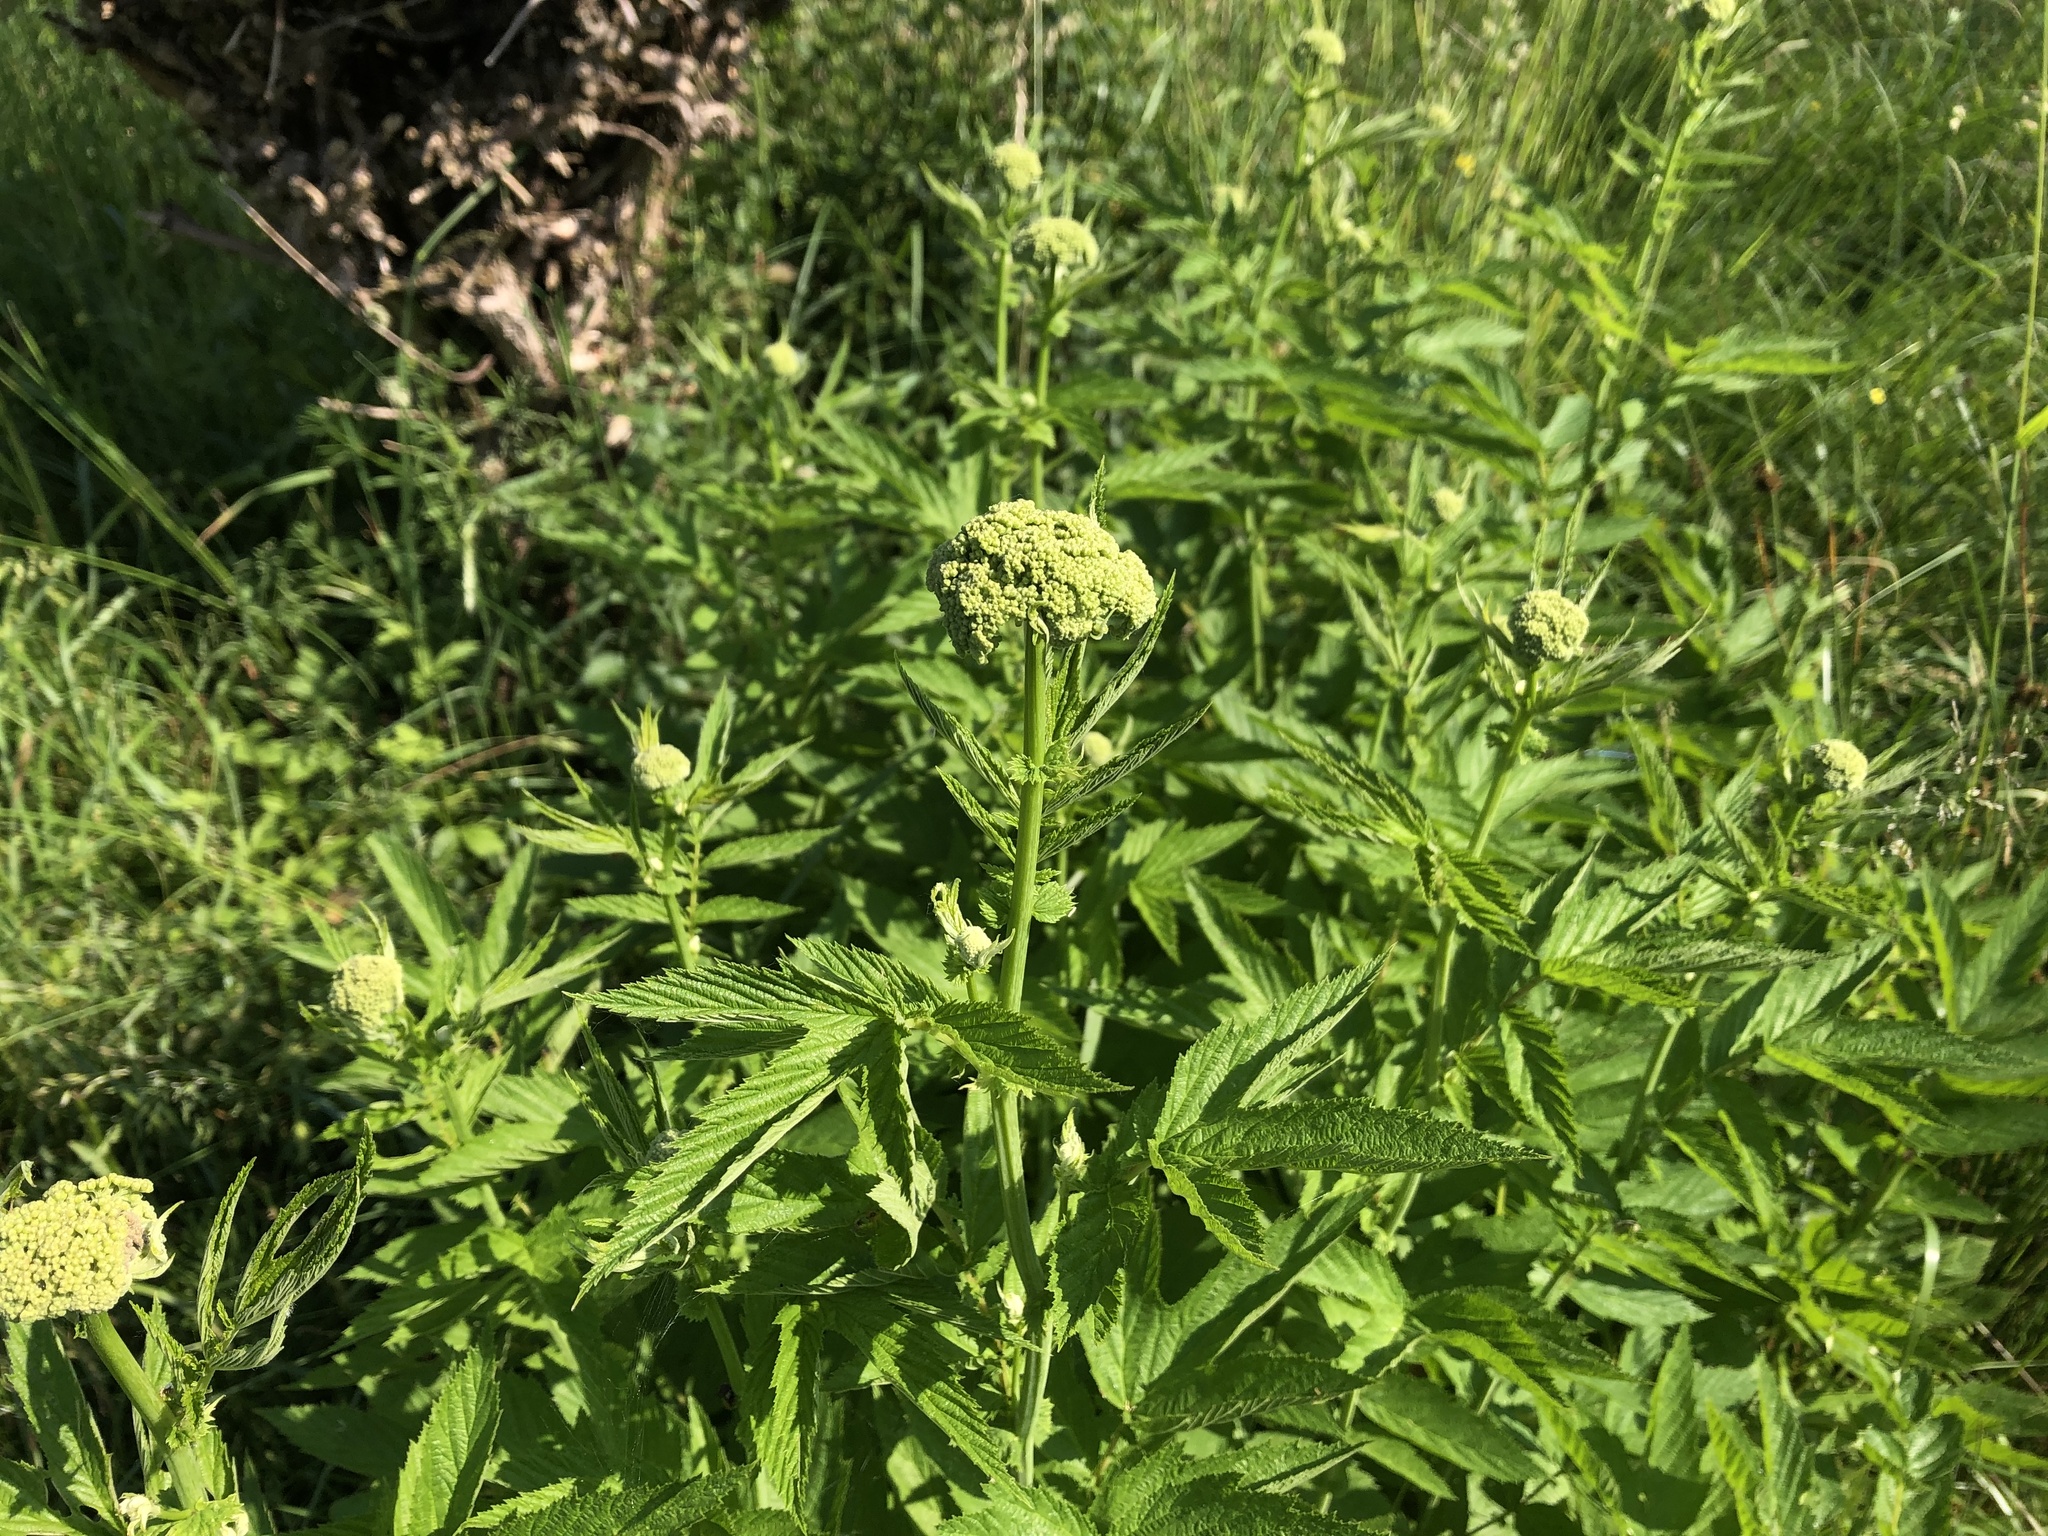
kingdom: Plantae
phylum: Tracheophyta
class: Magnoliopsida
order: Rosales
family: Rosaceae
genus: Filipendula
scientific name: Filipendula ulmaria
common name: Meadowsweet
